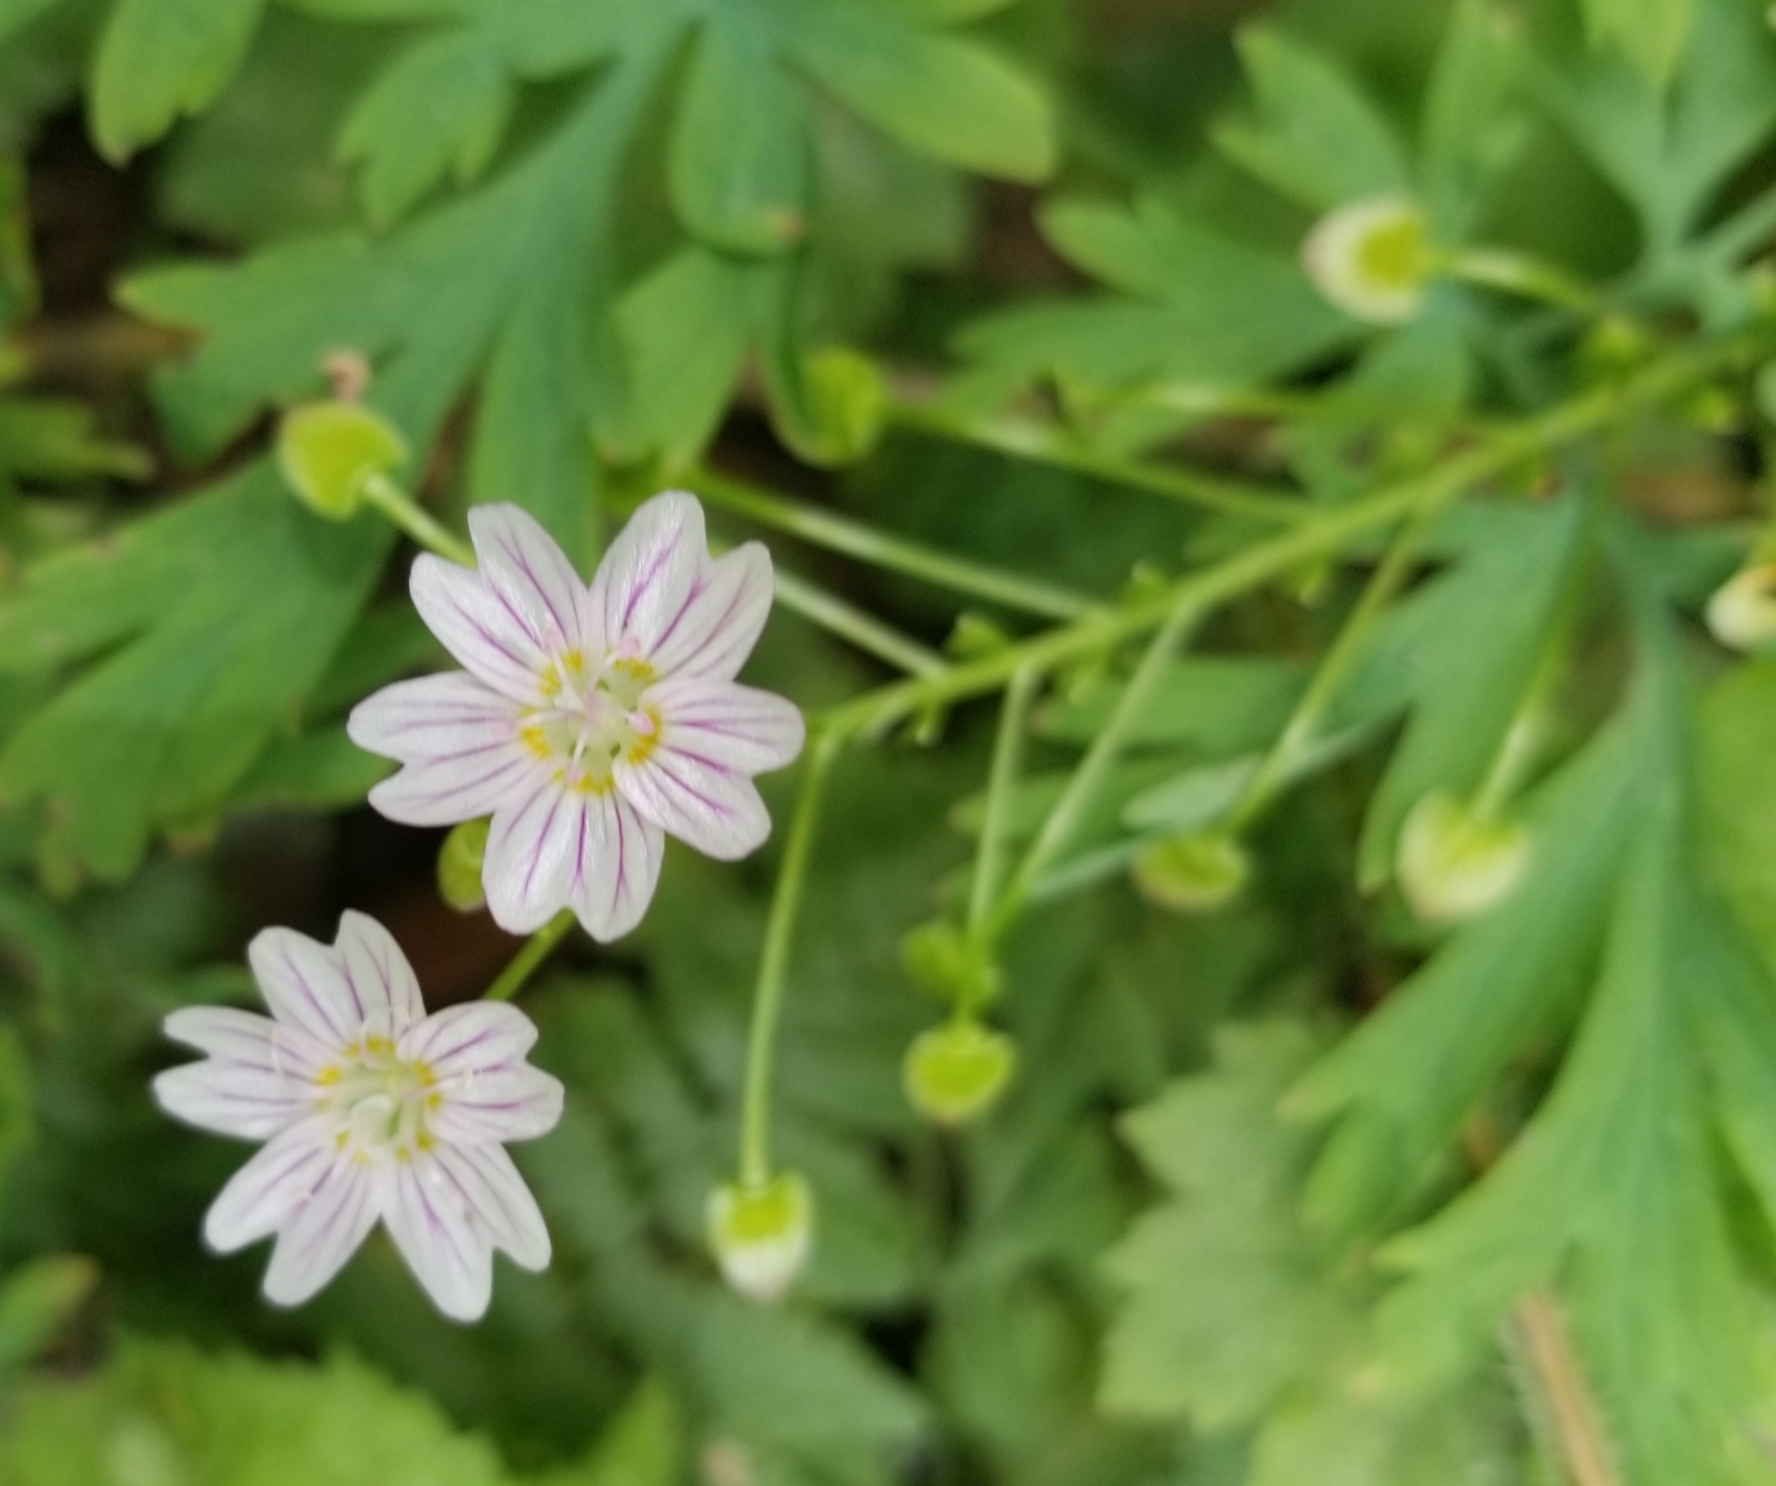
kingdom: Plantae
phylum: Tracheophyta
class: Magnoliopsida
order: Caryophyllales
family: Montiaceae
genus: Claytonia
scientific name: Claytonia sibirica
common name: Pink purslane
